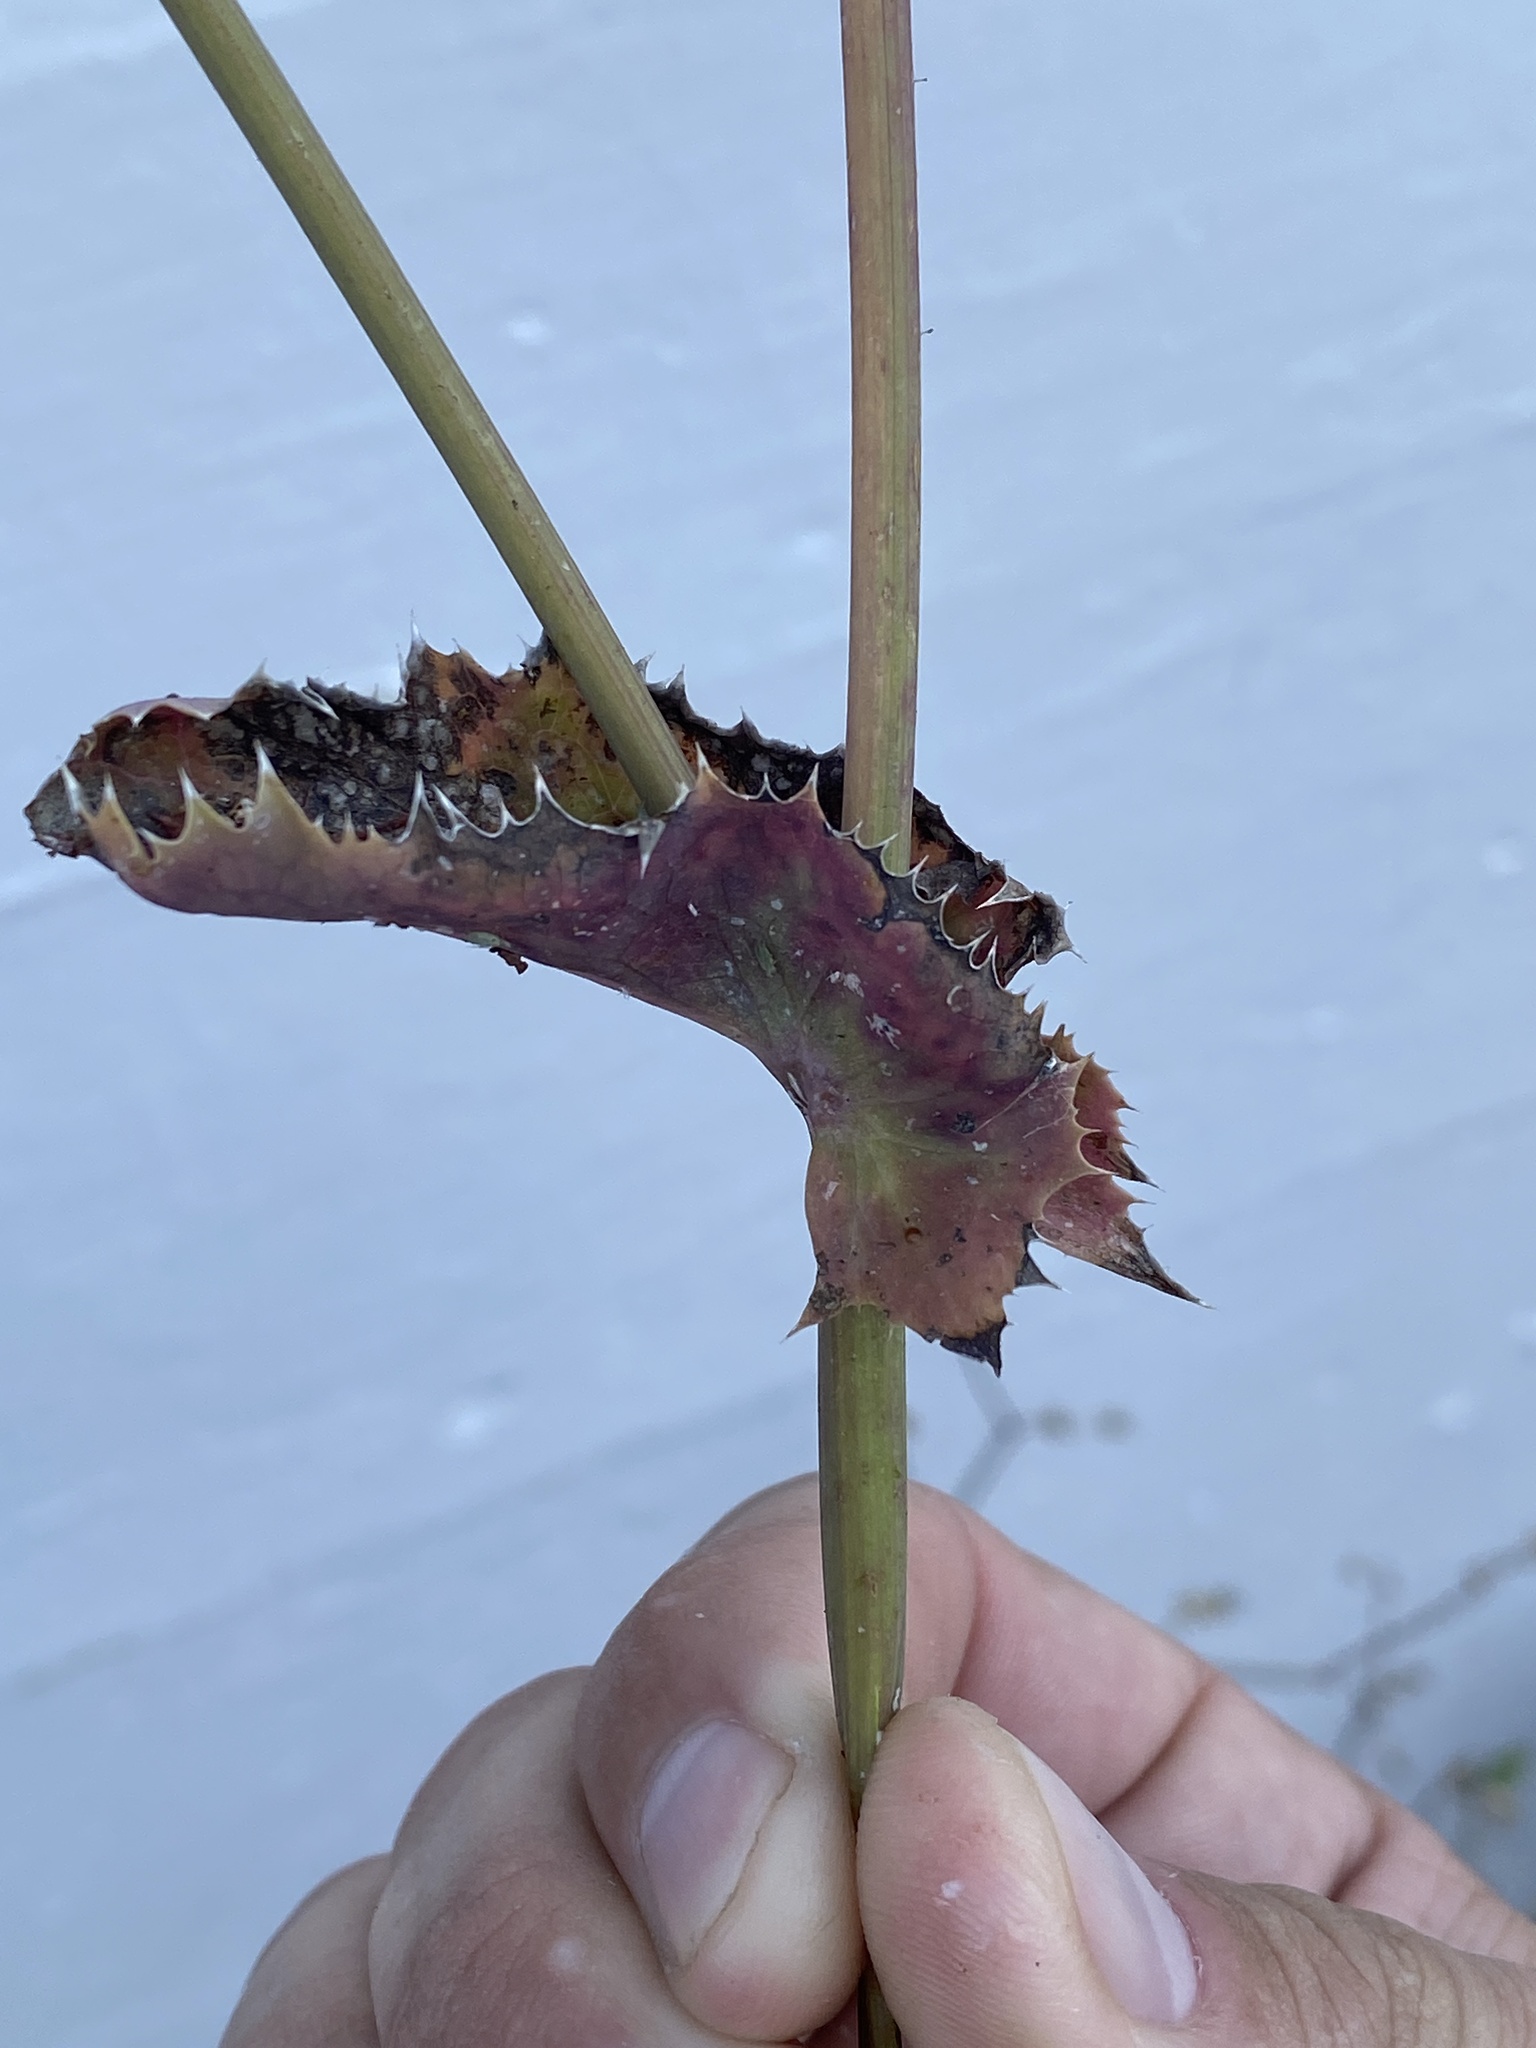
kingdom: Plantae
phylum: Tracheophyta
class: Magnoliopsida
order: Asterales
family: Asteraceae
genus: Sonchus
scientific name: Sonchus oleraceus
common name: Common sowthistle
